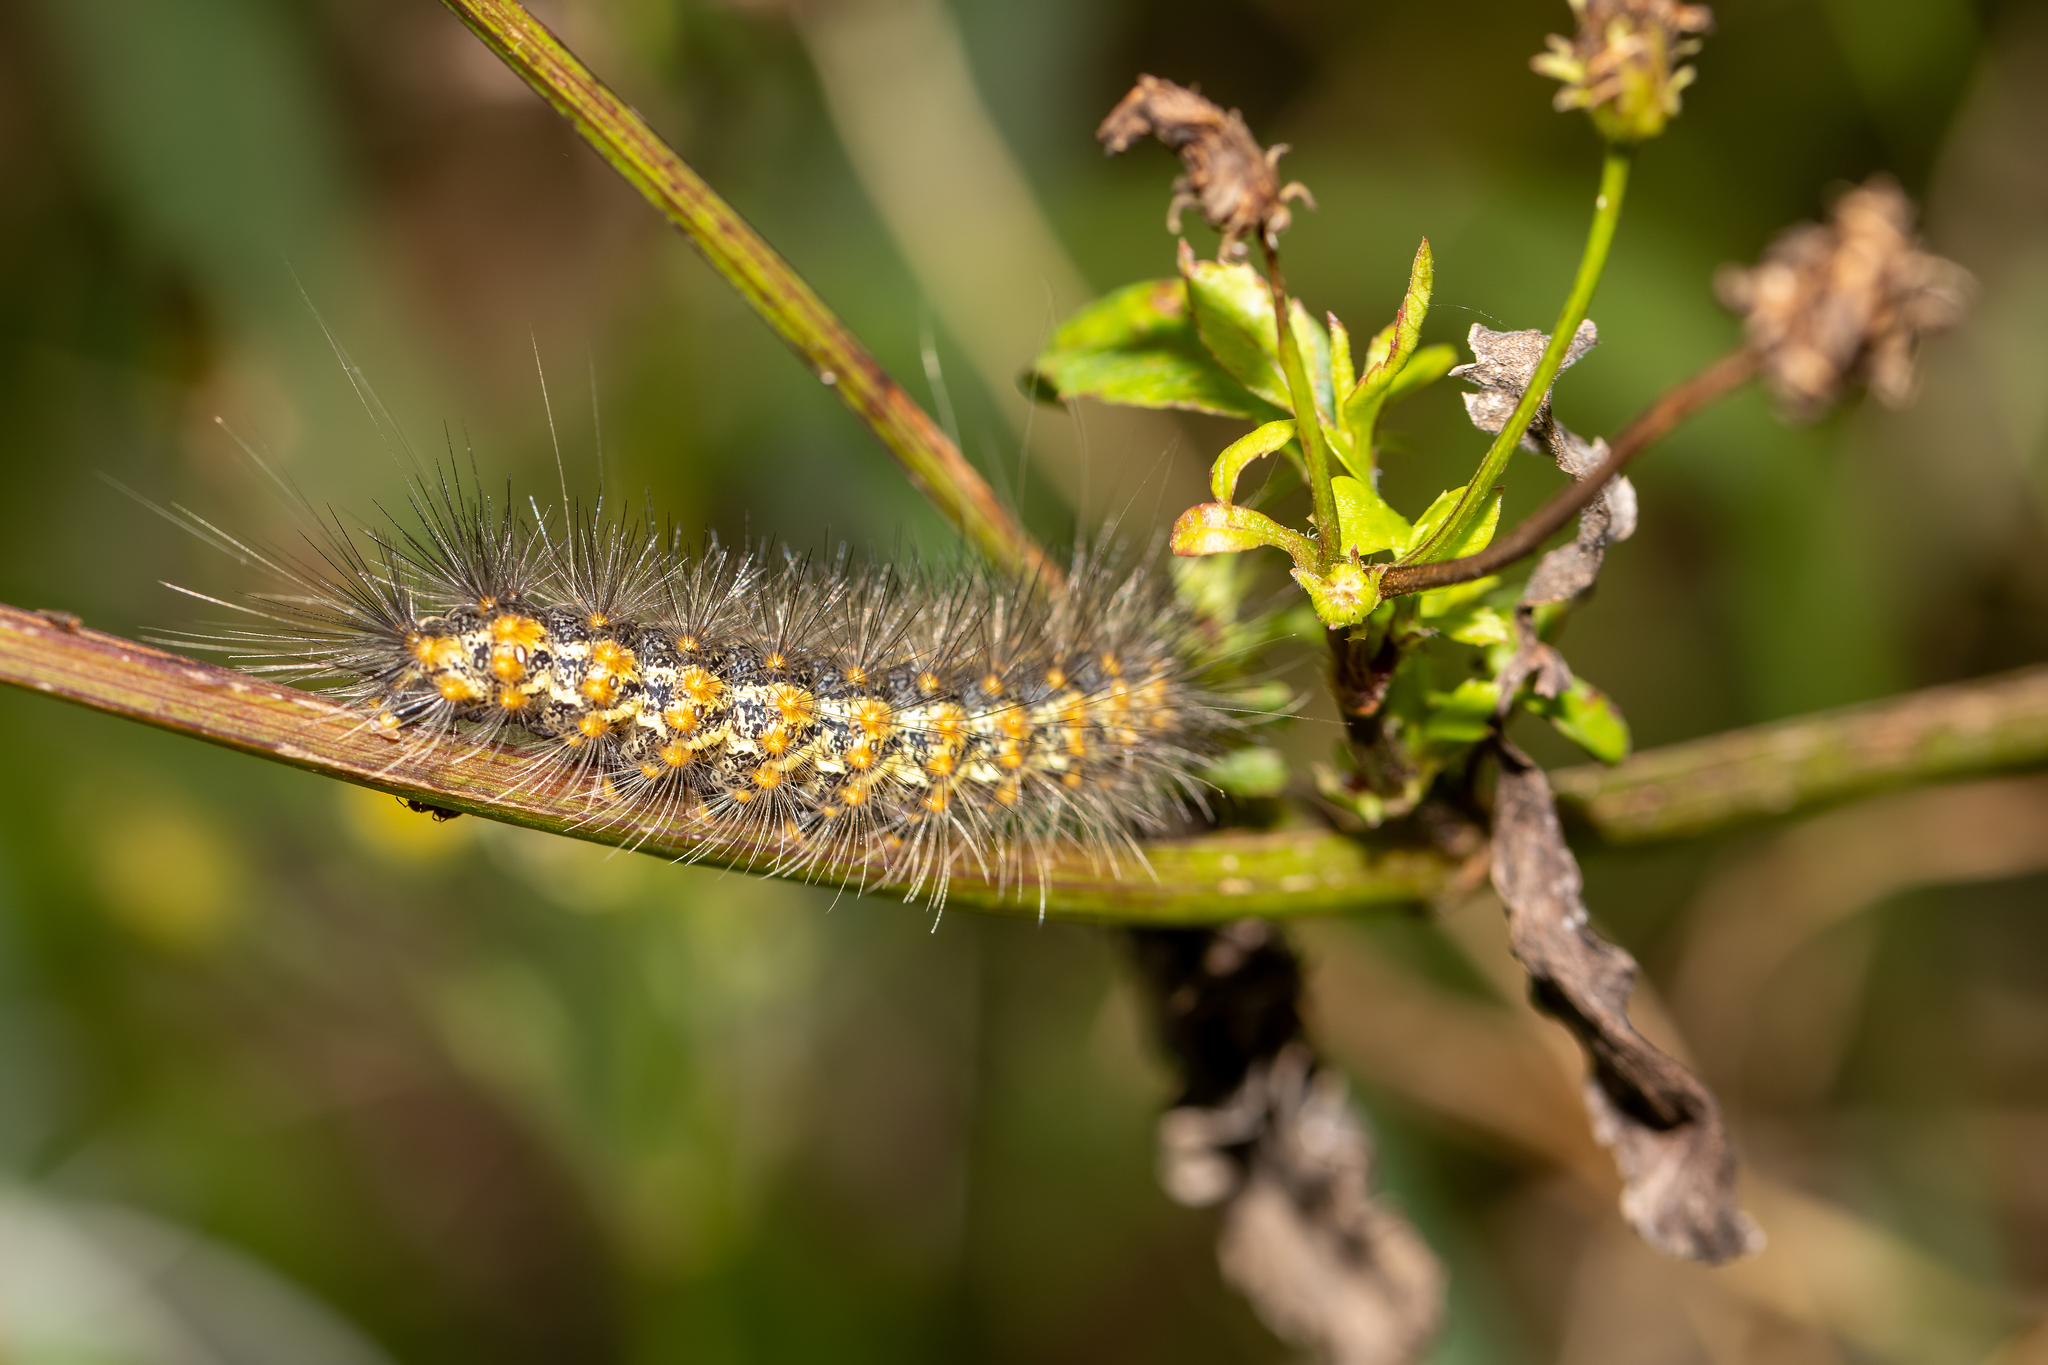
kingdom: Animalia
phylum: Arthropoda
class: Insecta
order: Lepidoptera
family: Erebidae
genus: Estigmene
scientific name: Estigmene acrea
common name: Salt marsh moth
